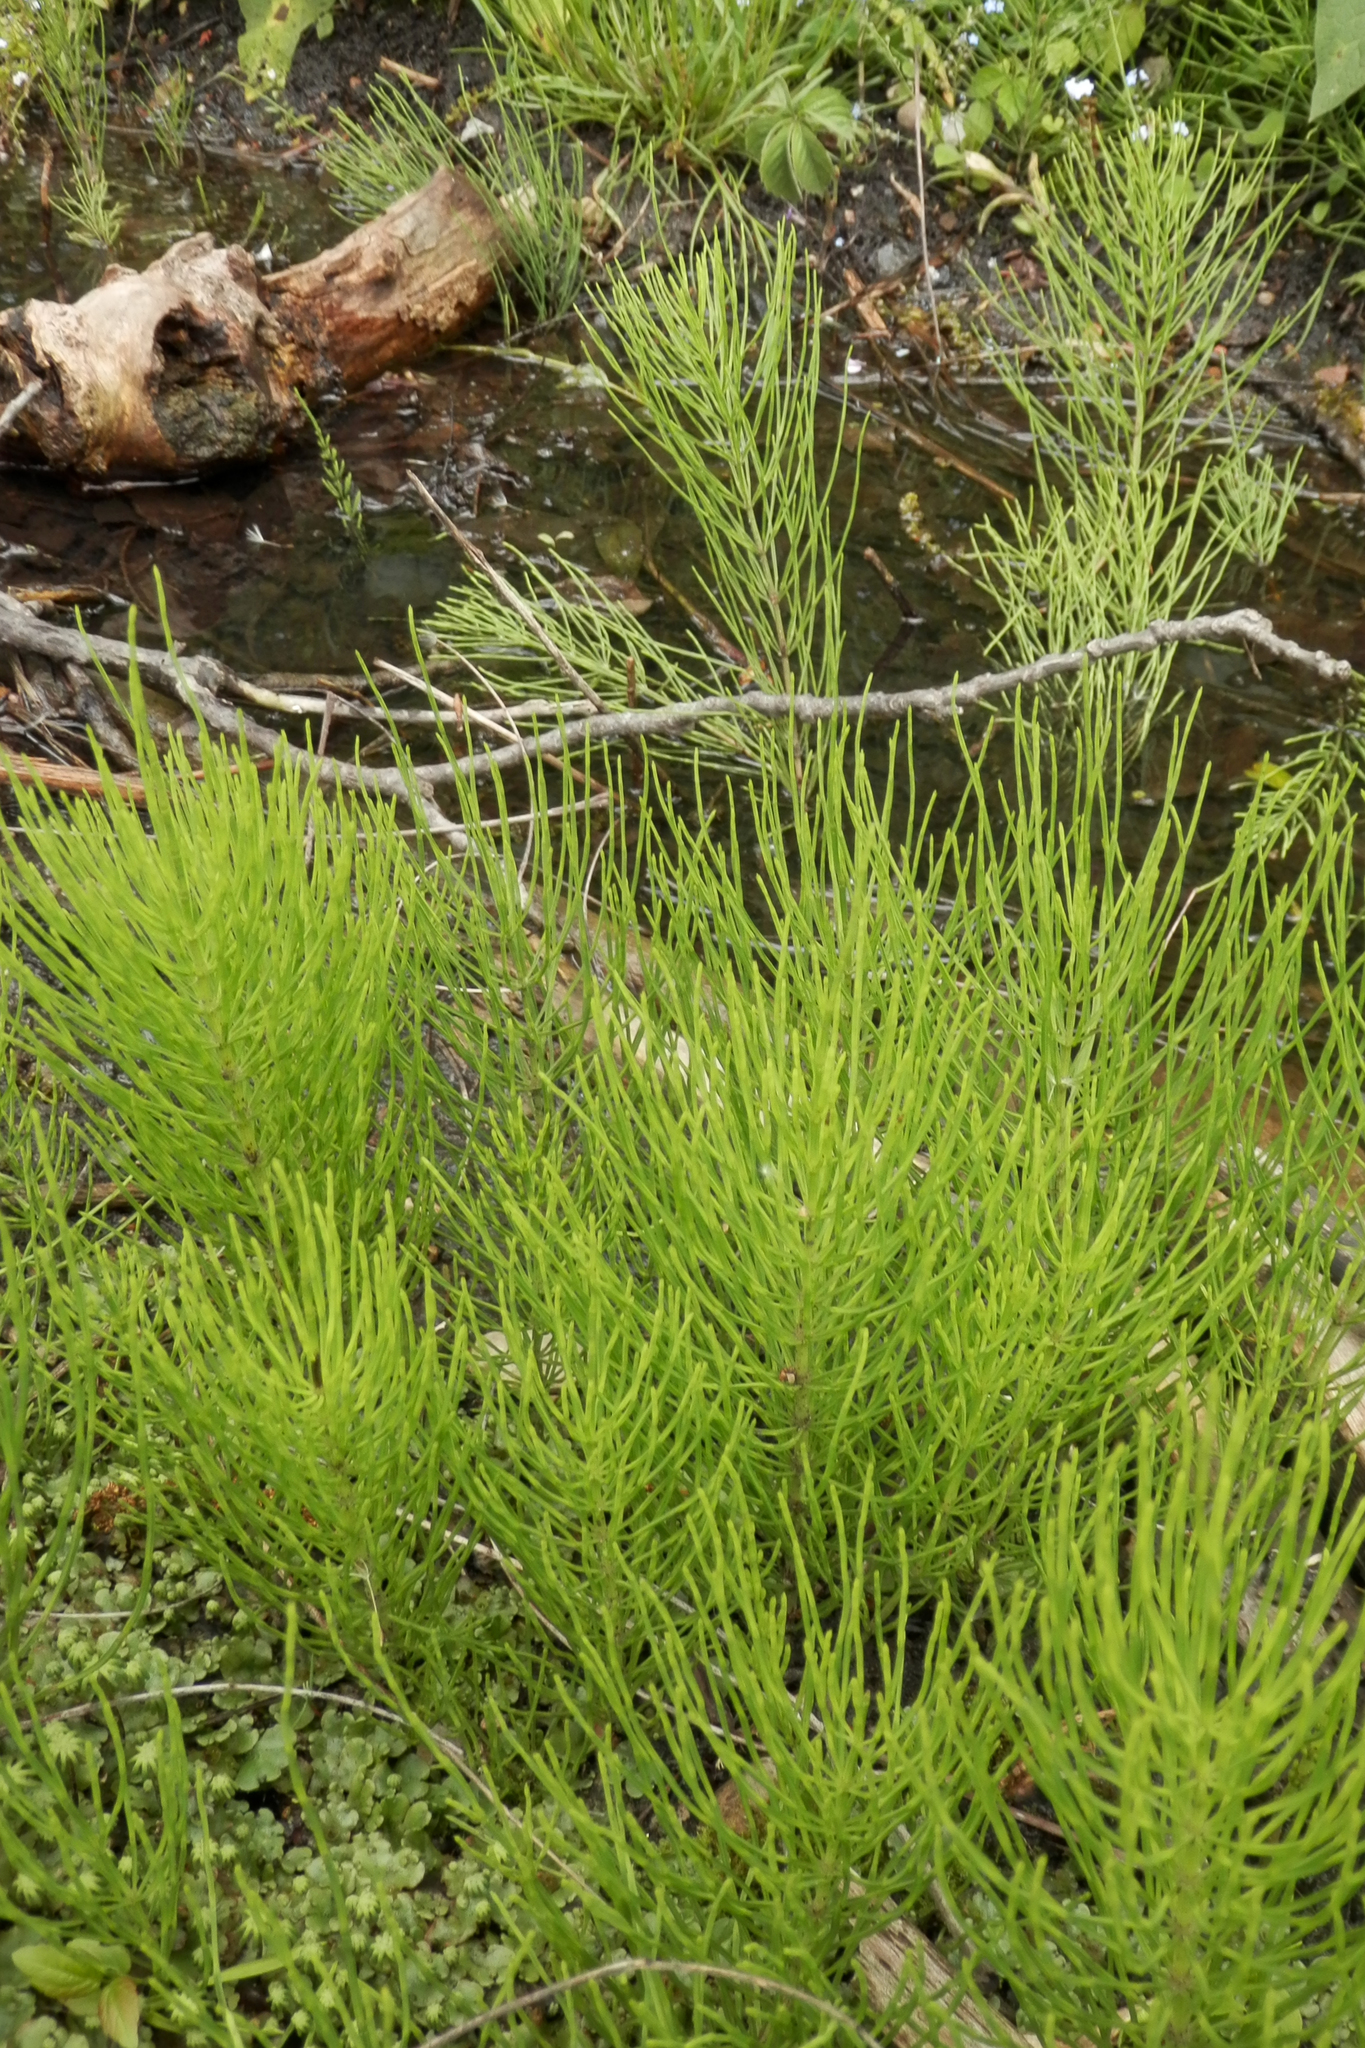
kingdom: Plantae
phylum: Tracheophyta
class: Polypodiopsida
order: Equisetales
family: Equisetaceae
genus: Equisetum
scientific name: Equisetum arvense
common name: Field horsetail
